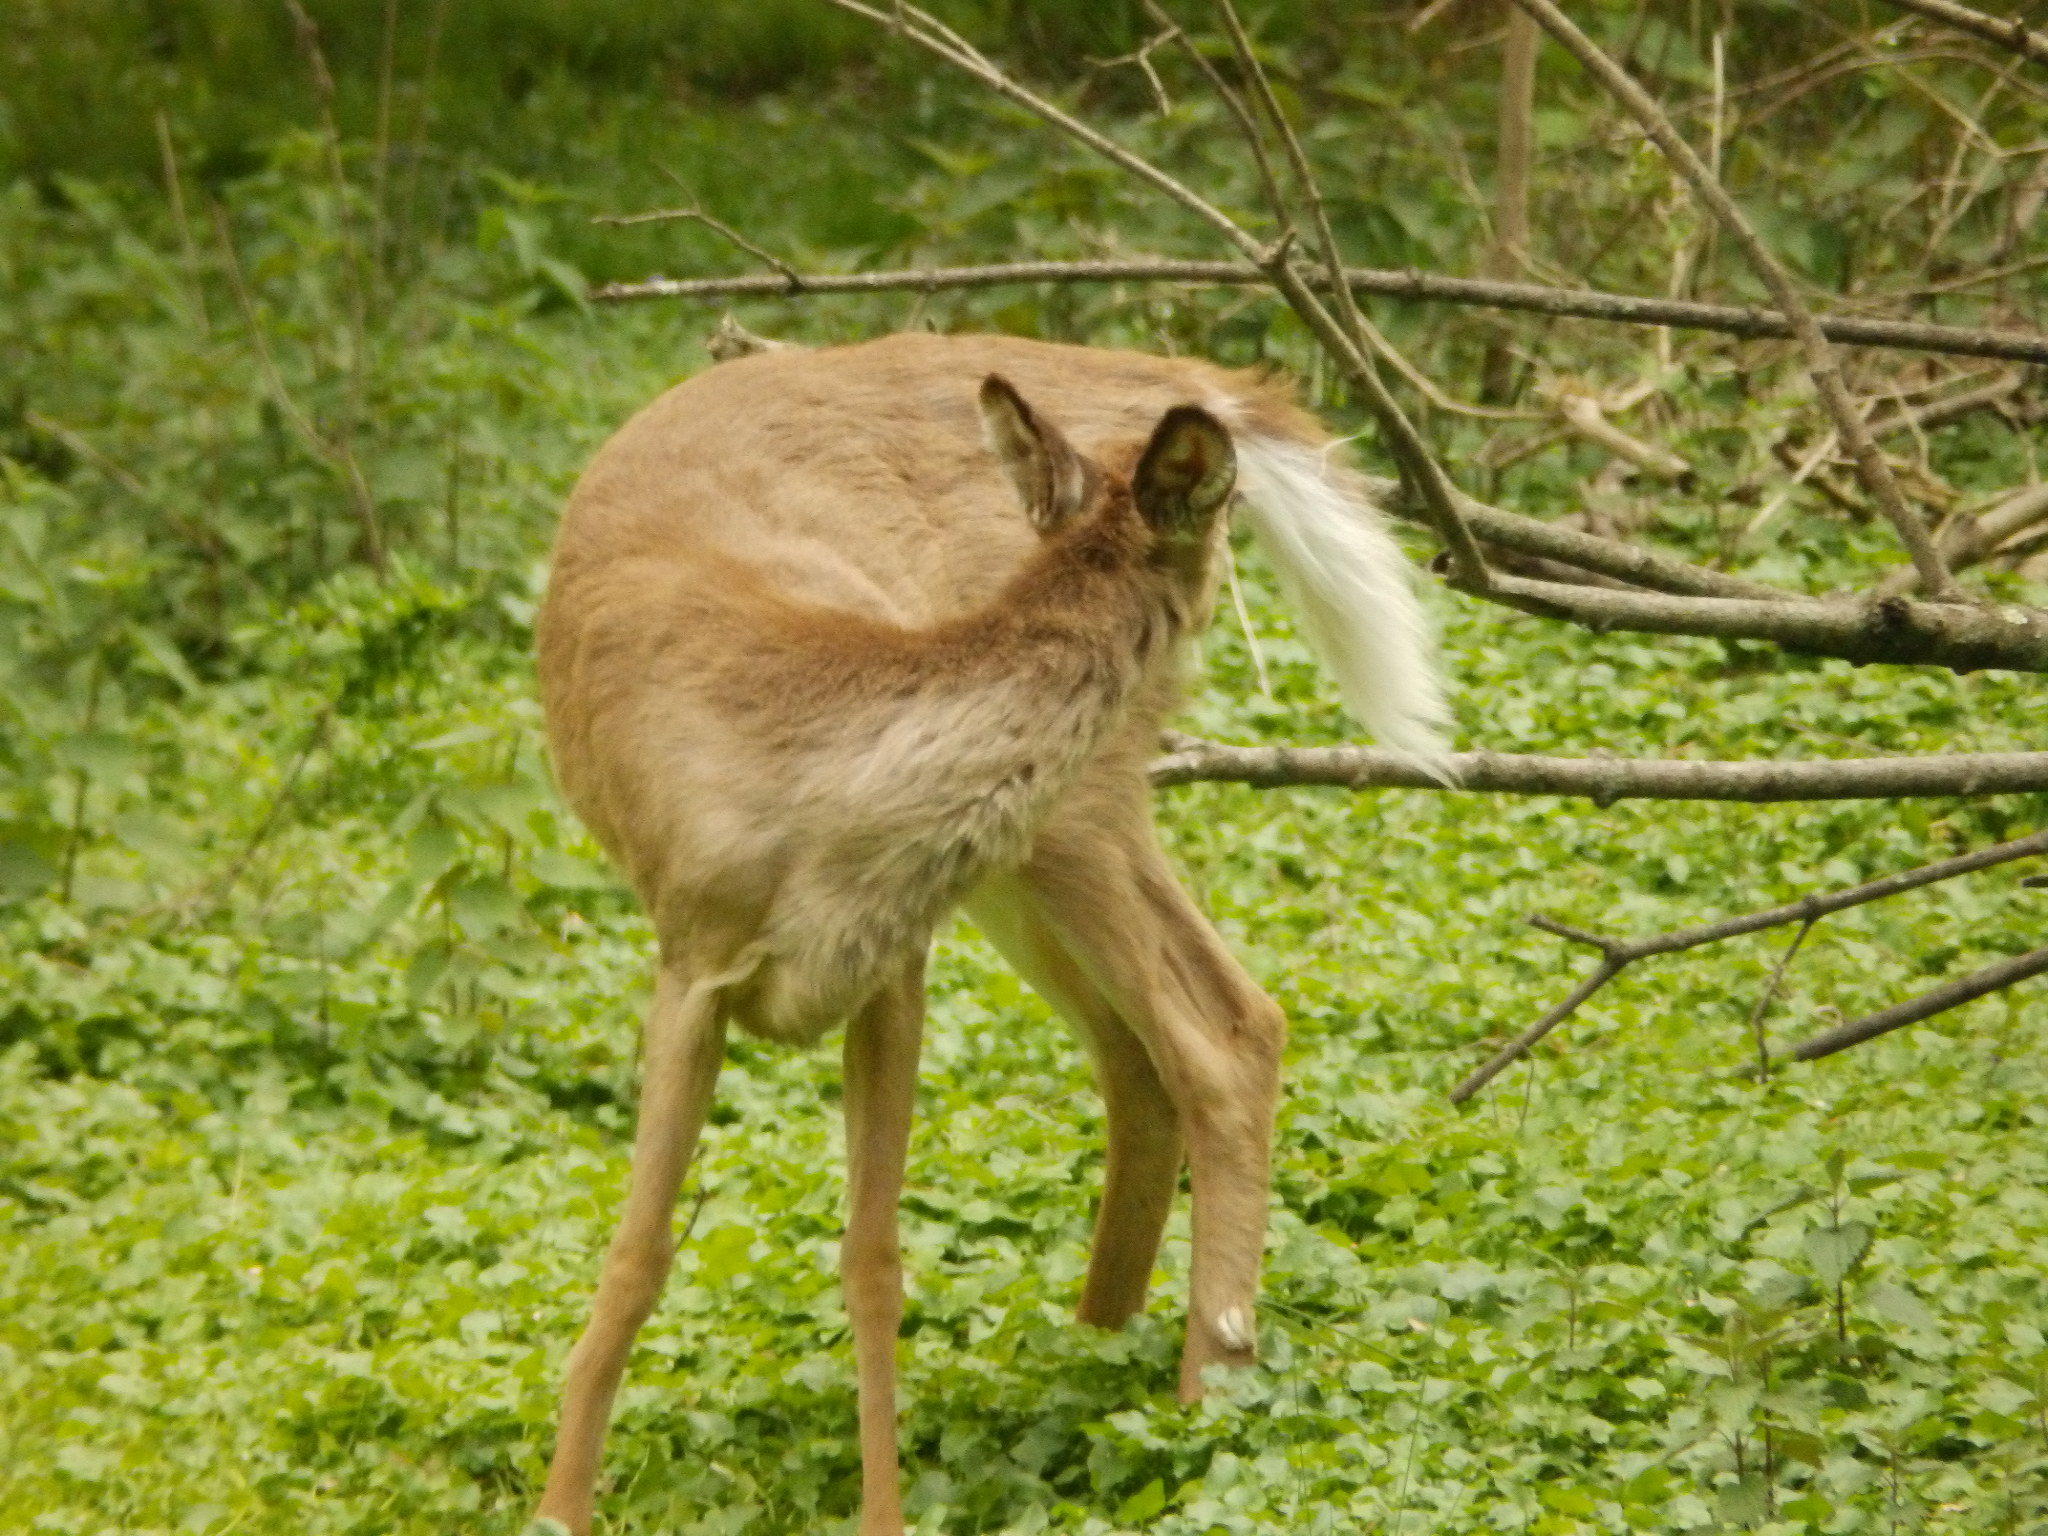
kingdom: Animalia
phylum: Chordata
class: Mammalia
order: Artiodactyla
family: Cervidae
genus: Odocoileus
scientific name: Odocoileus virginianus
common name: White-tailed deer
